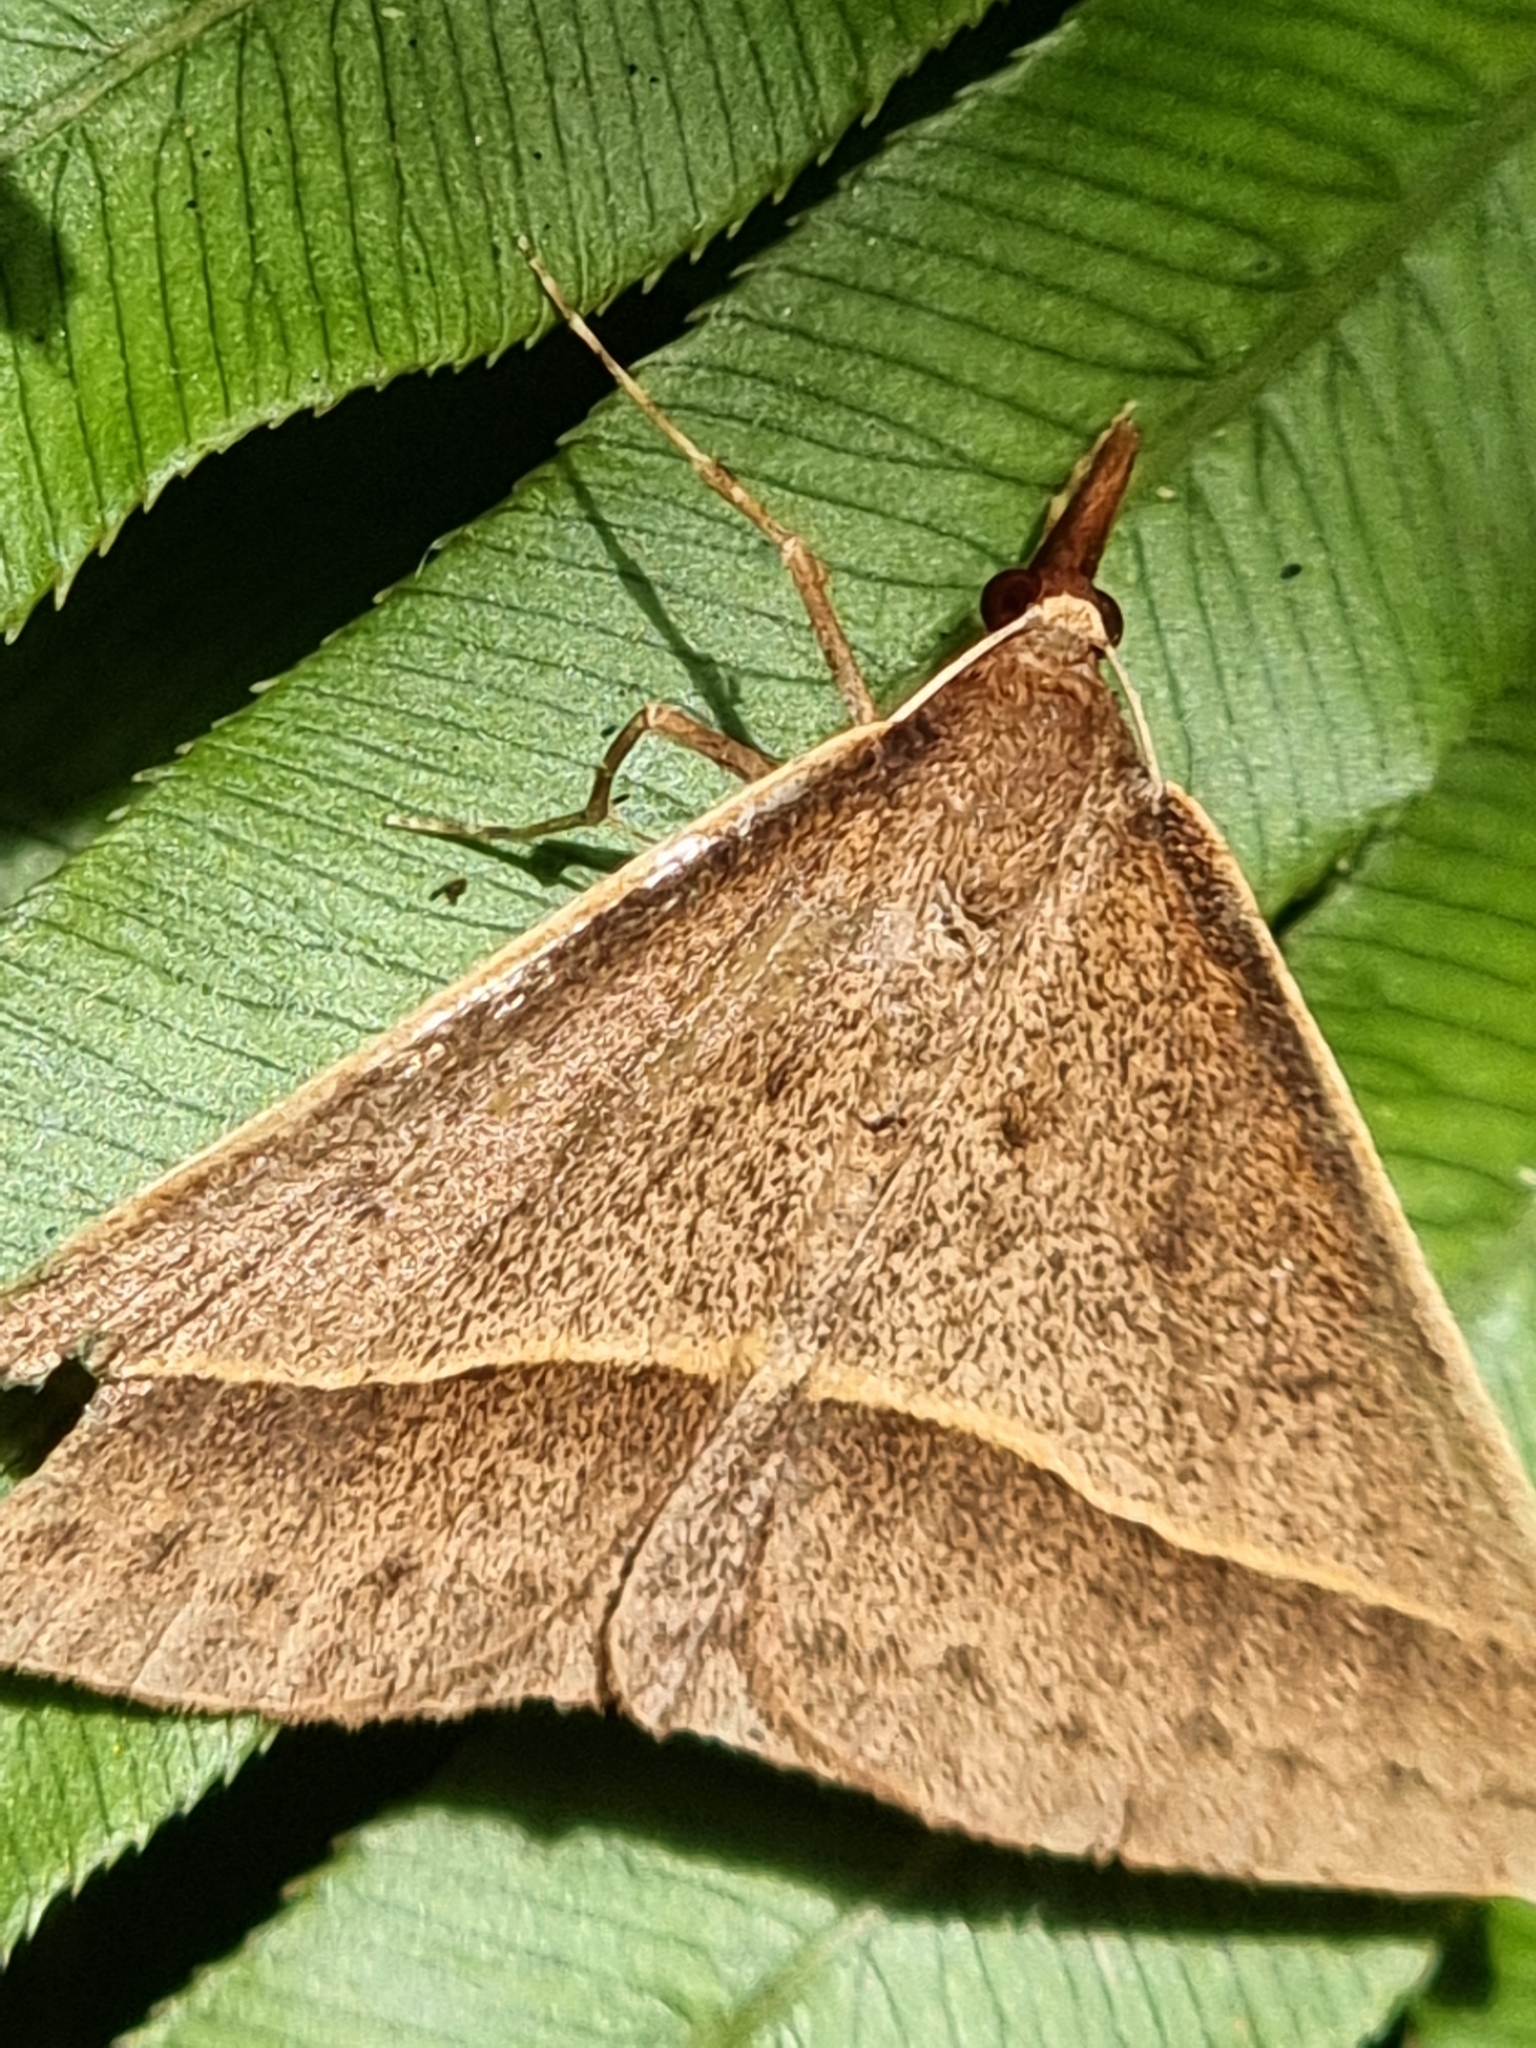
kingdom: Animalia
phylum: Arthropoda
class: Insecta
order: Lepidoptera
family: Geometridae
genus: Epidesmia
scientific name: Epidesmia tryxaria
